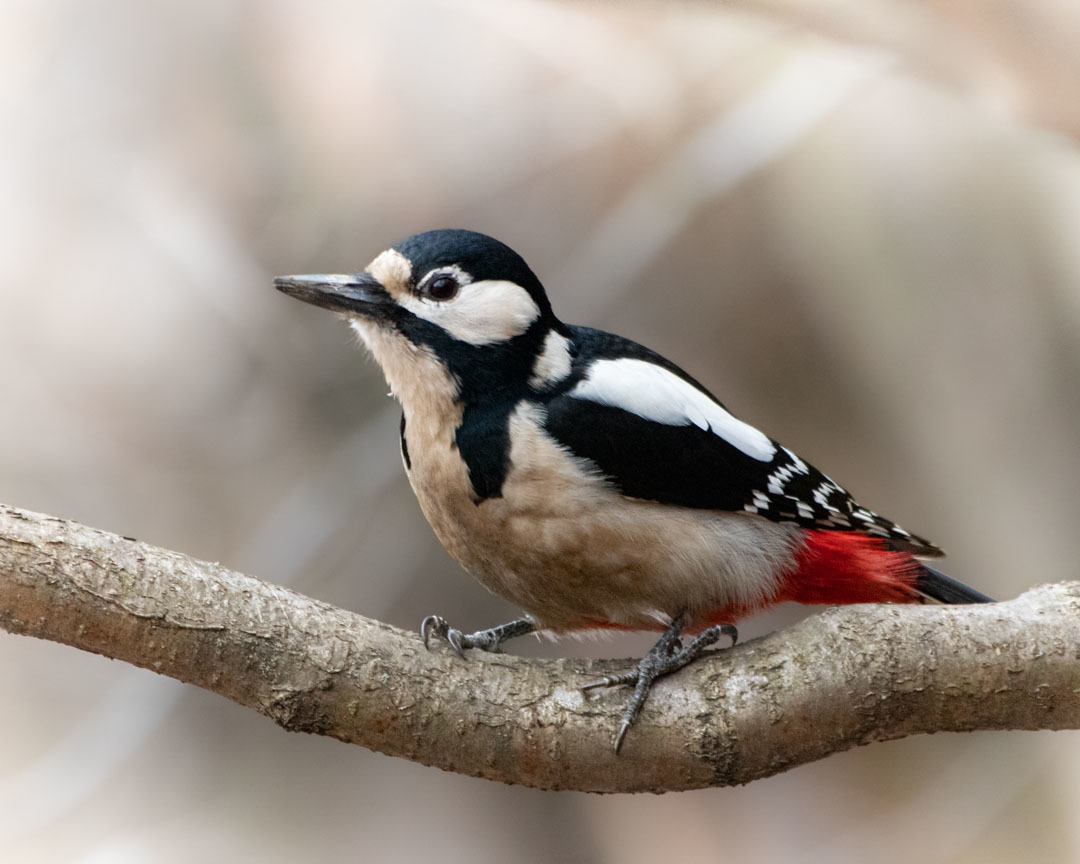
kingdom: Animalia
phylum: Chordata
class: Aves
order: Piciformes
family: Picidae
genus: Dendrocopos
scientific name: Dendrocopos major
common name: Great spotted woodpecker
